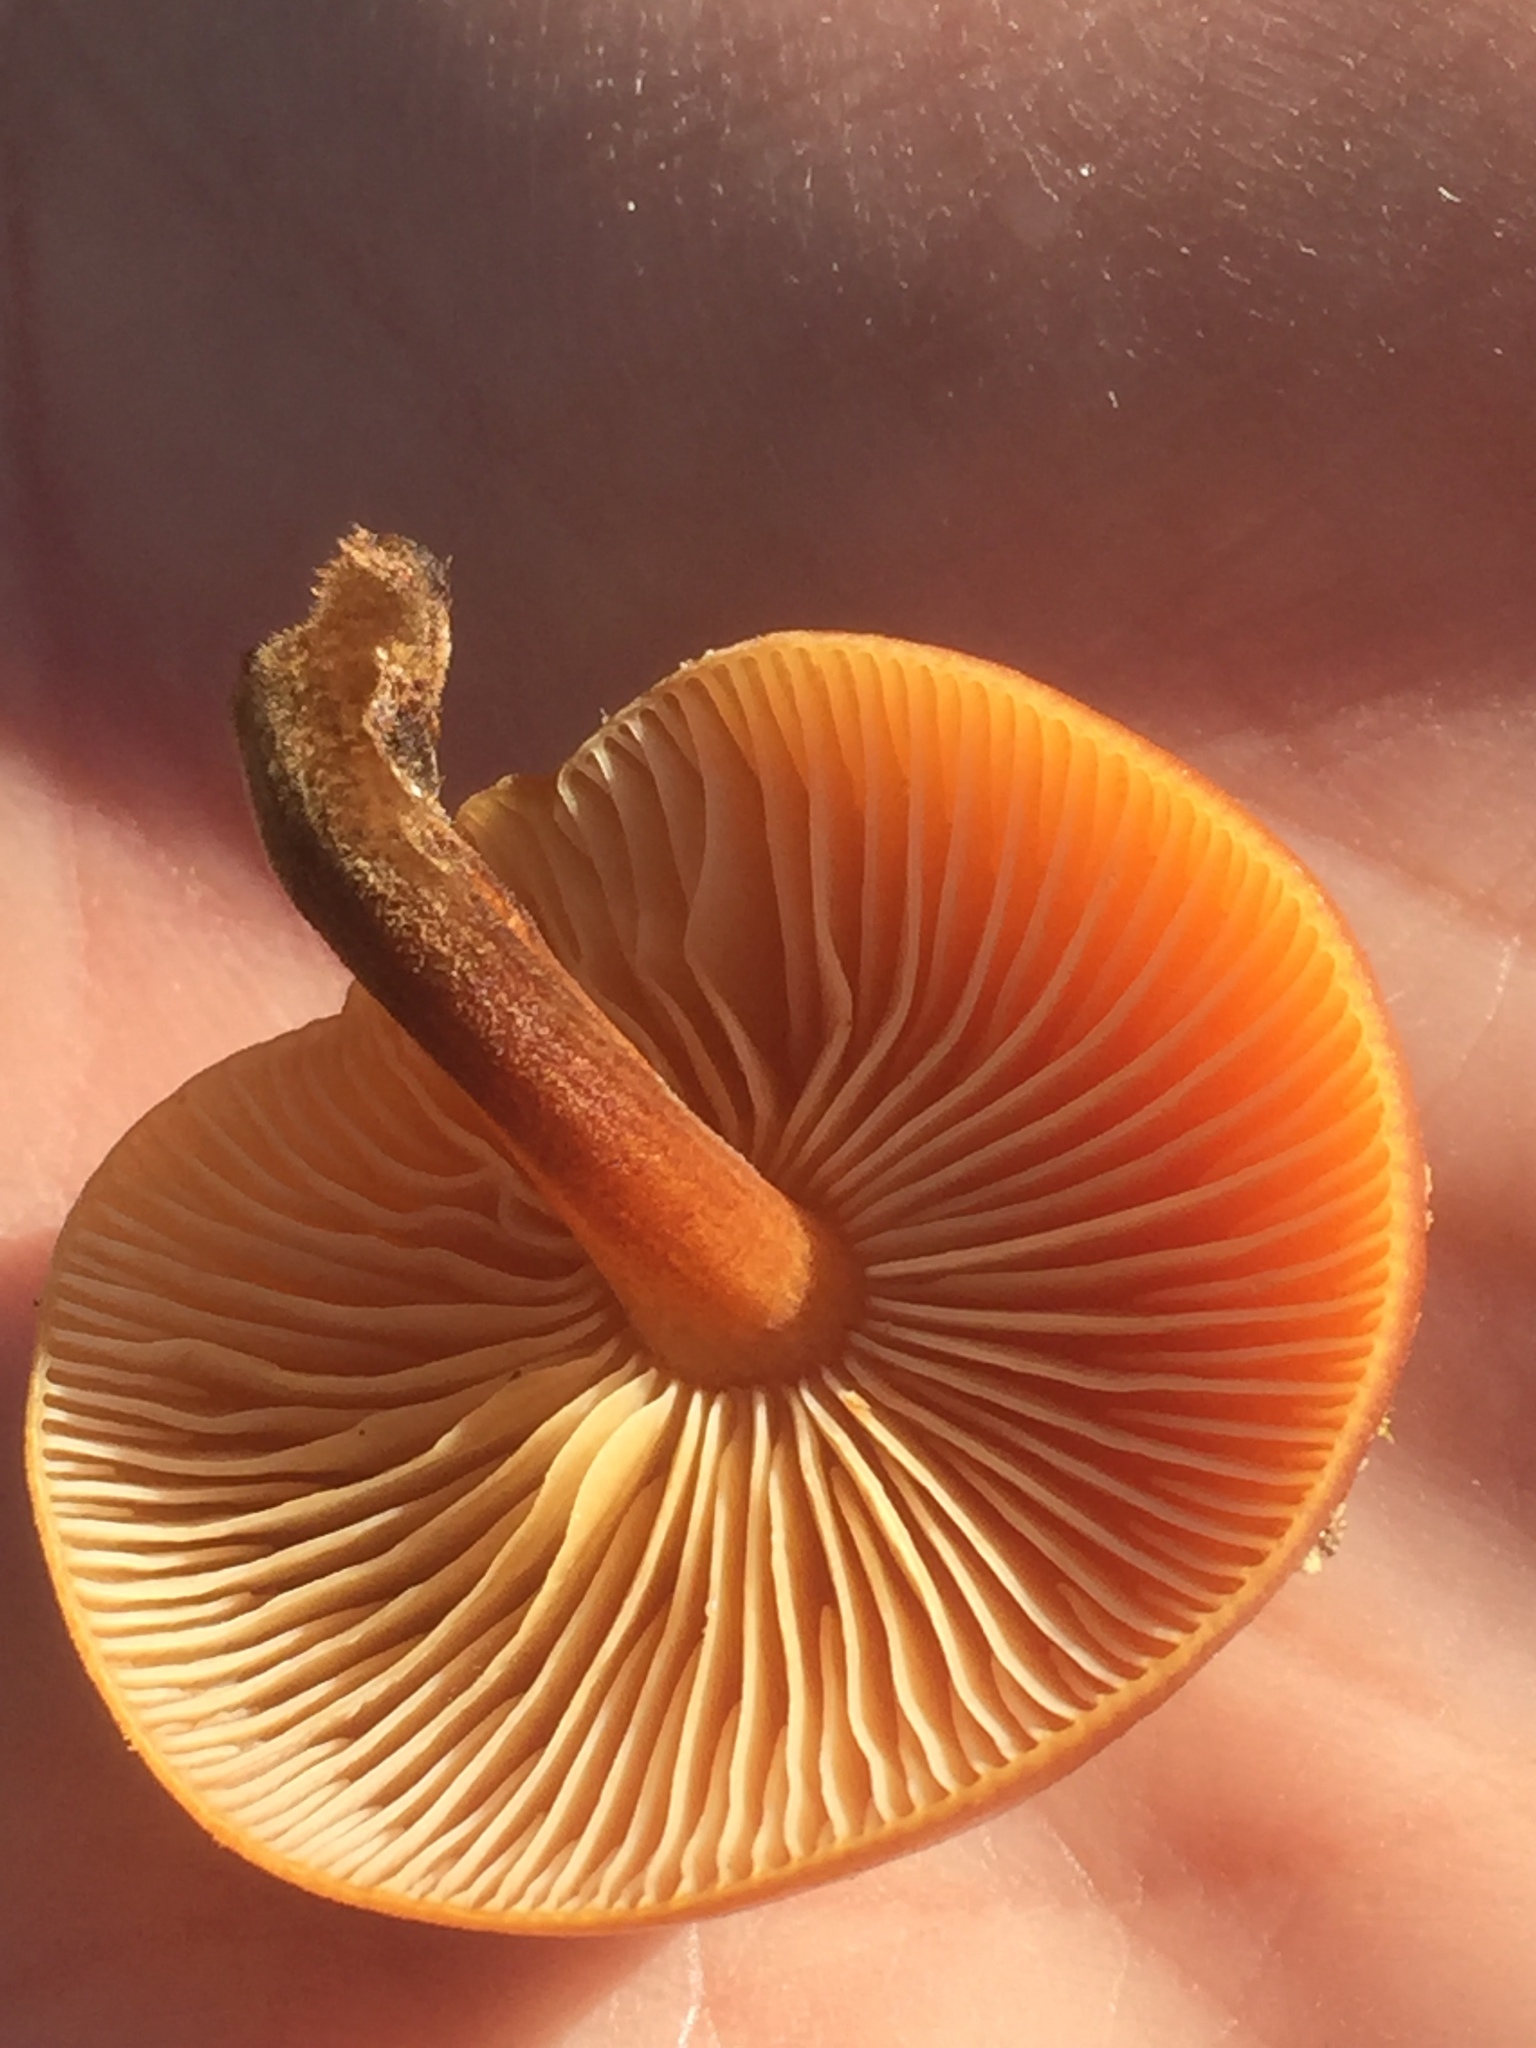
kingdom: Fungi
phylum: Basidiomycota
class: Agaricomycetes
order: Agaricales
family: Physalacriaceae
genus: Flammulina
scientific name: Flammulina
